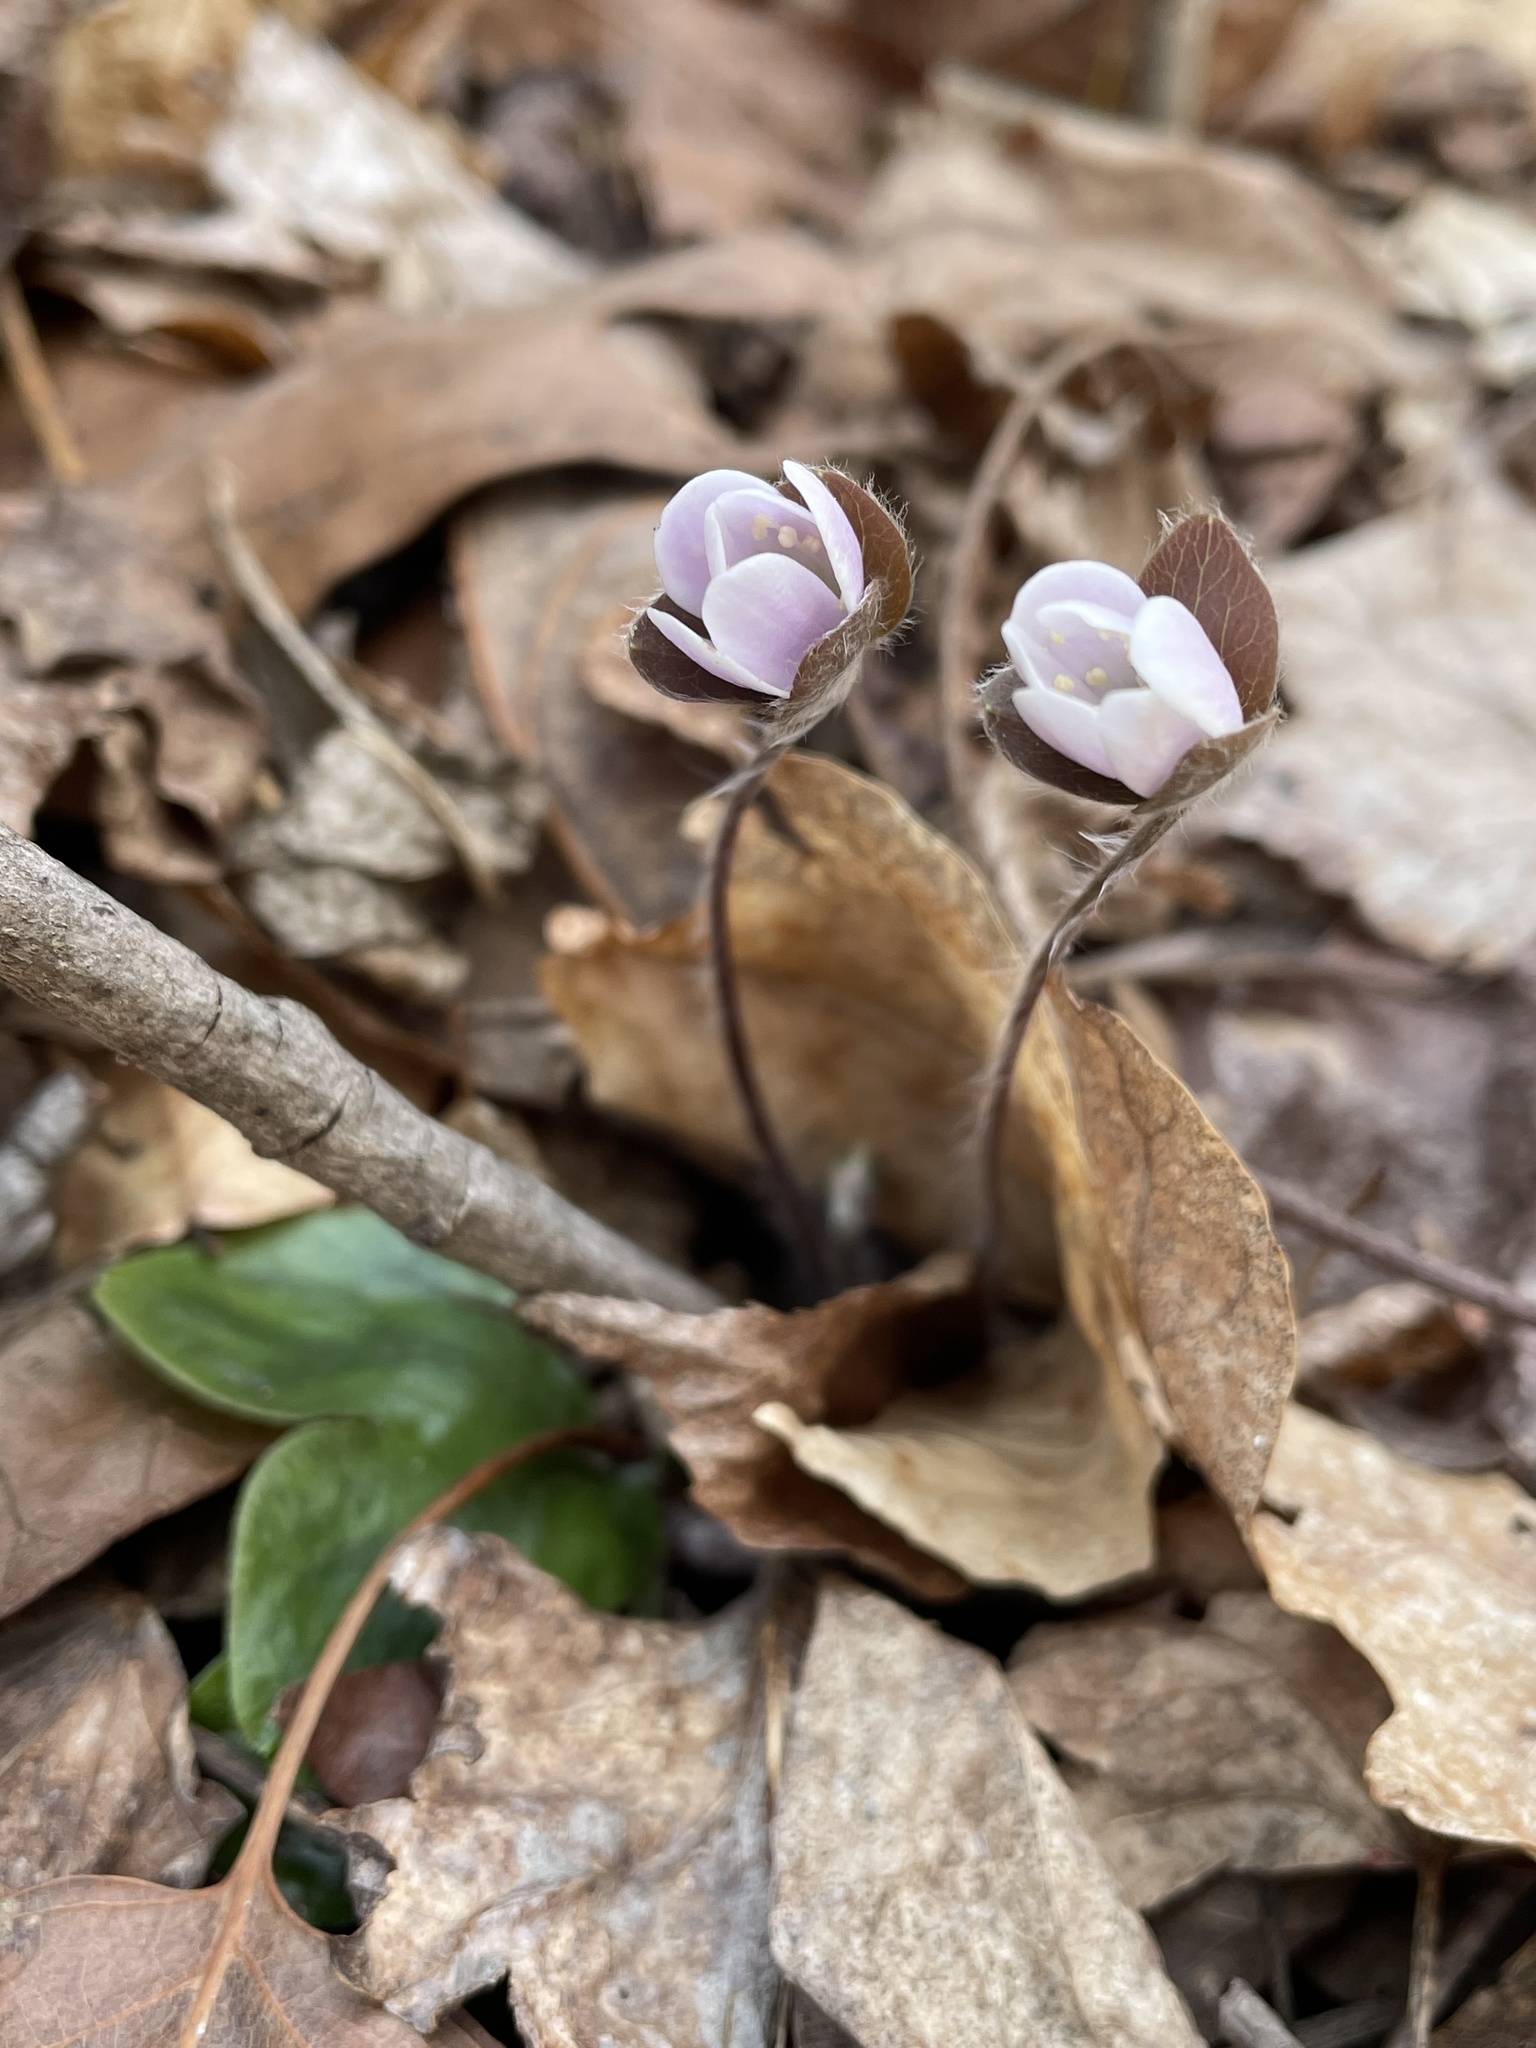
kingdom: Plantae
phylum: Tracheophyta
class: Magnoliopsida
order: Ranunculales
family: Ranunculaceae
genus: Hepatica
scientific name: Hepatica americana
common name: American hepatica
